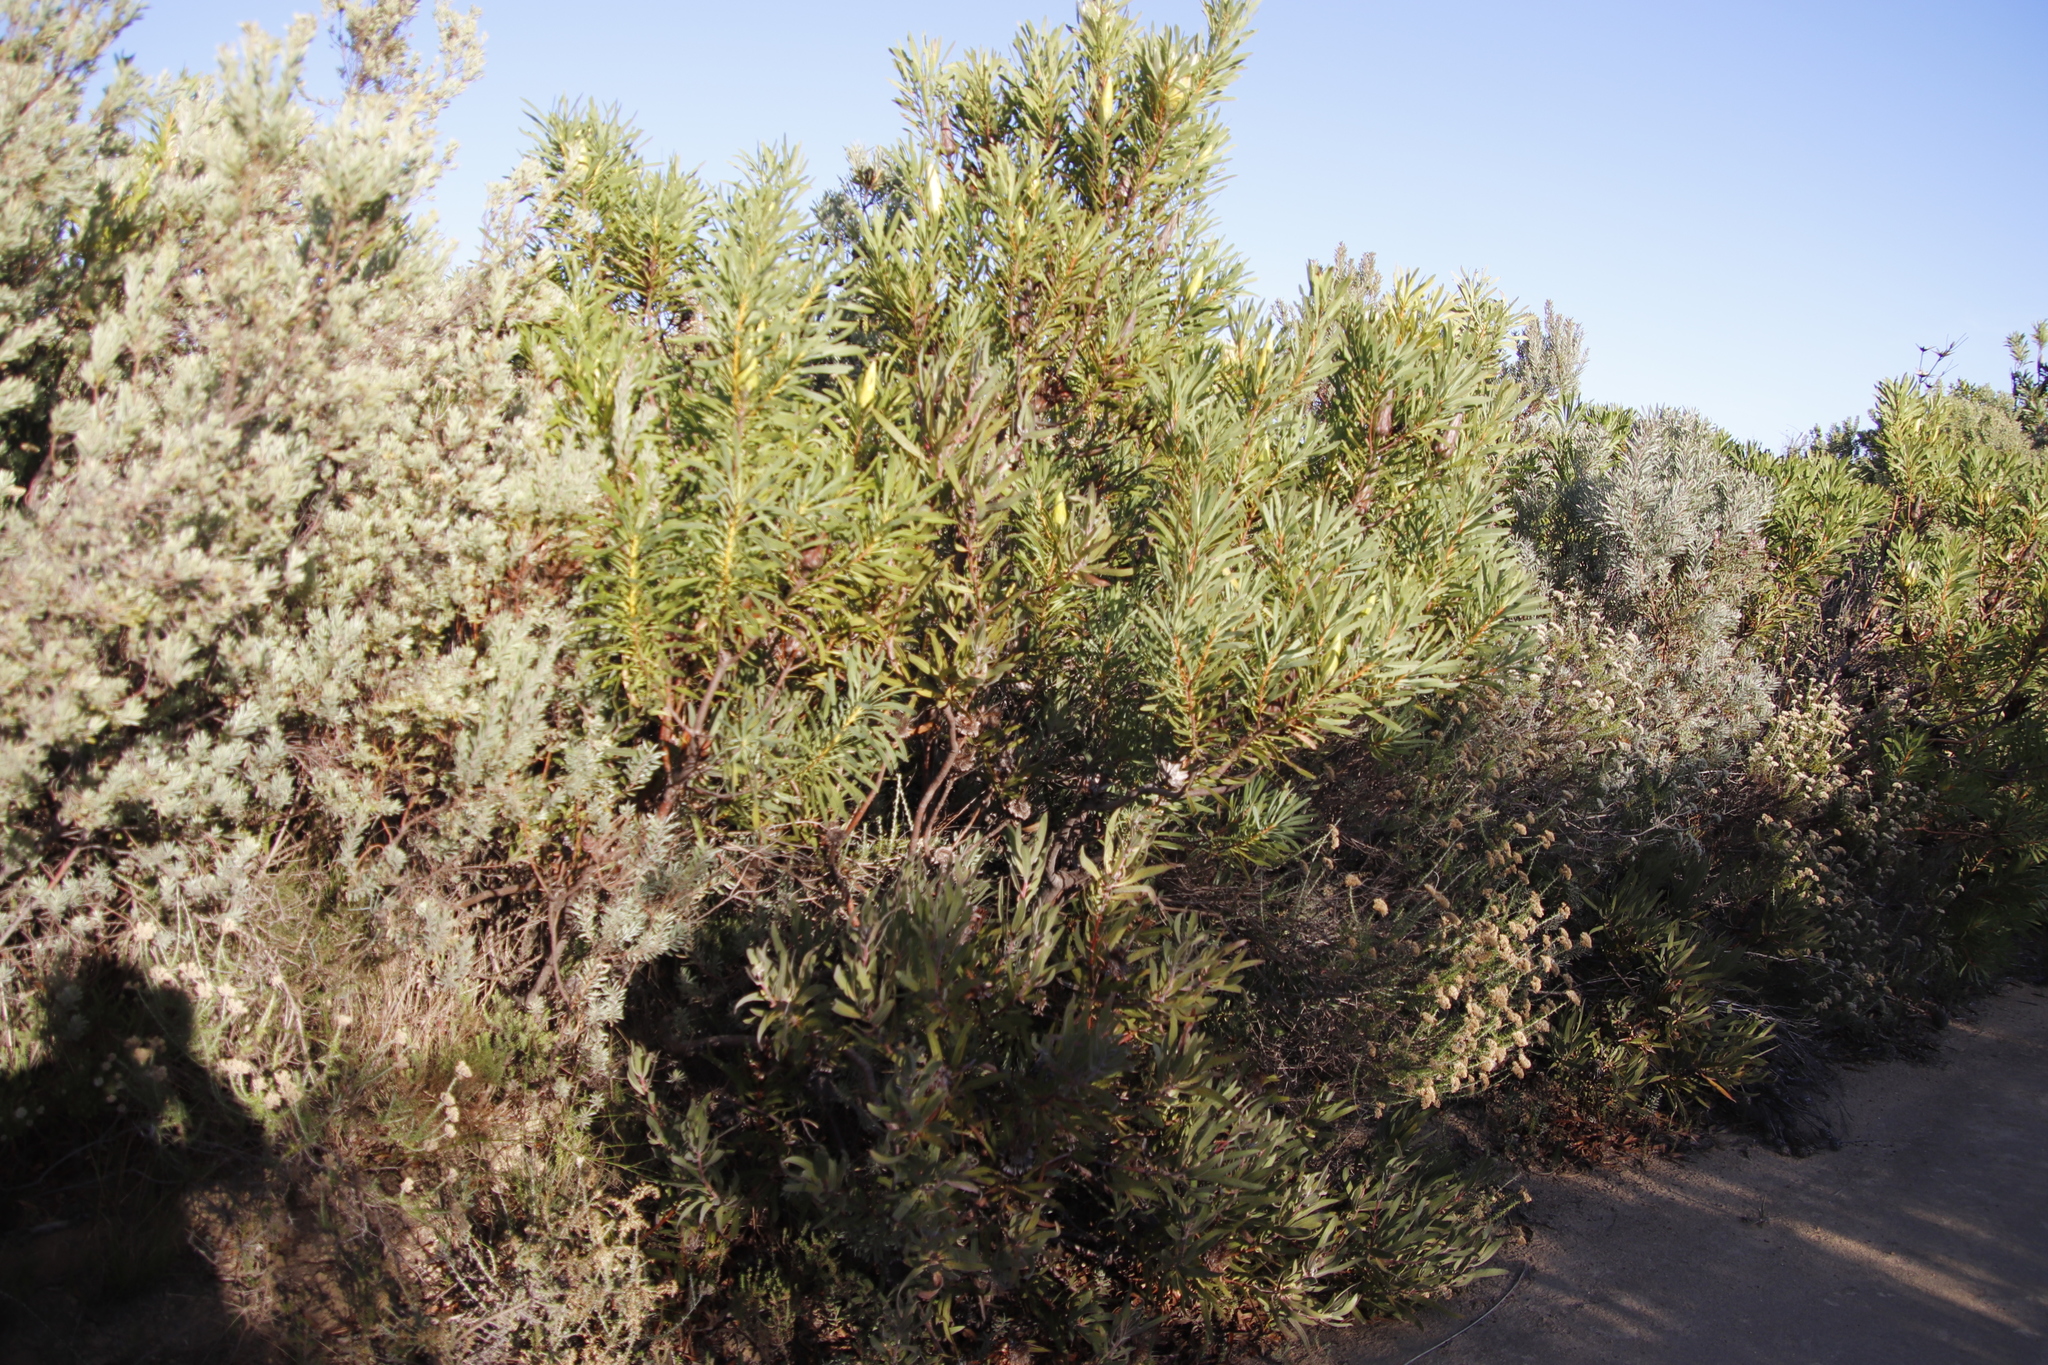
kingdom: Plantae
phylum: Tracheophyta
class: Magnoliopsida
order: Proteales
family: Proteaceae
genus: Protea
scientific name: Protea repens
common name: Sugarbush
